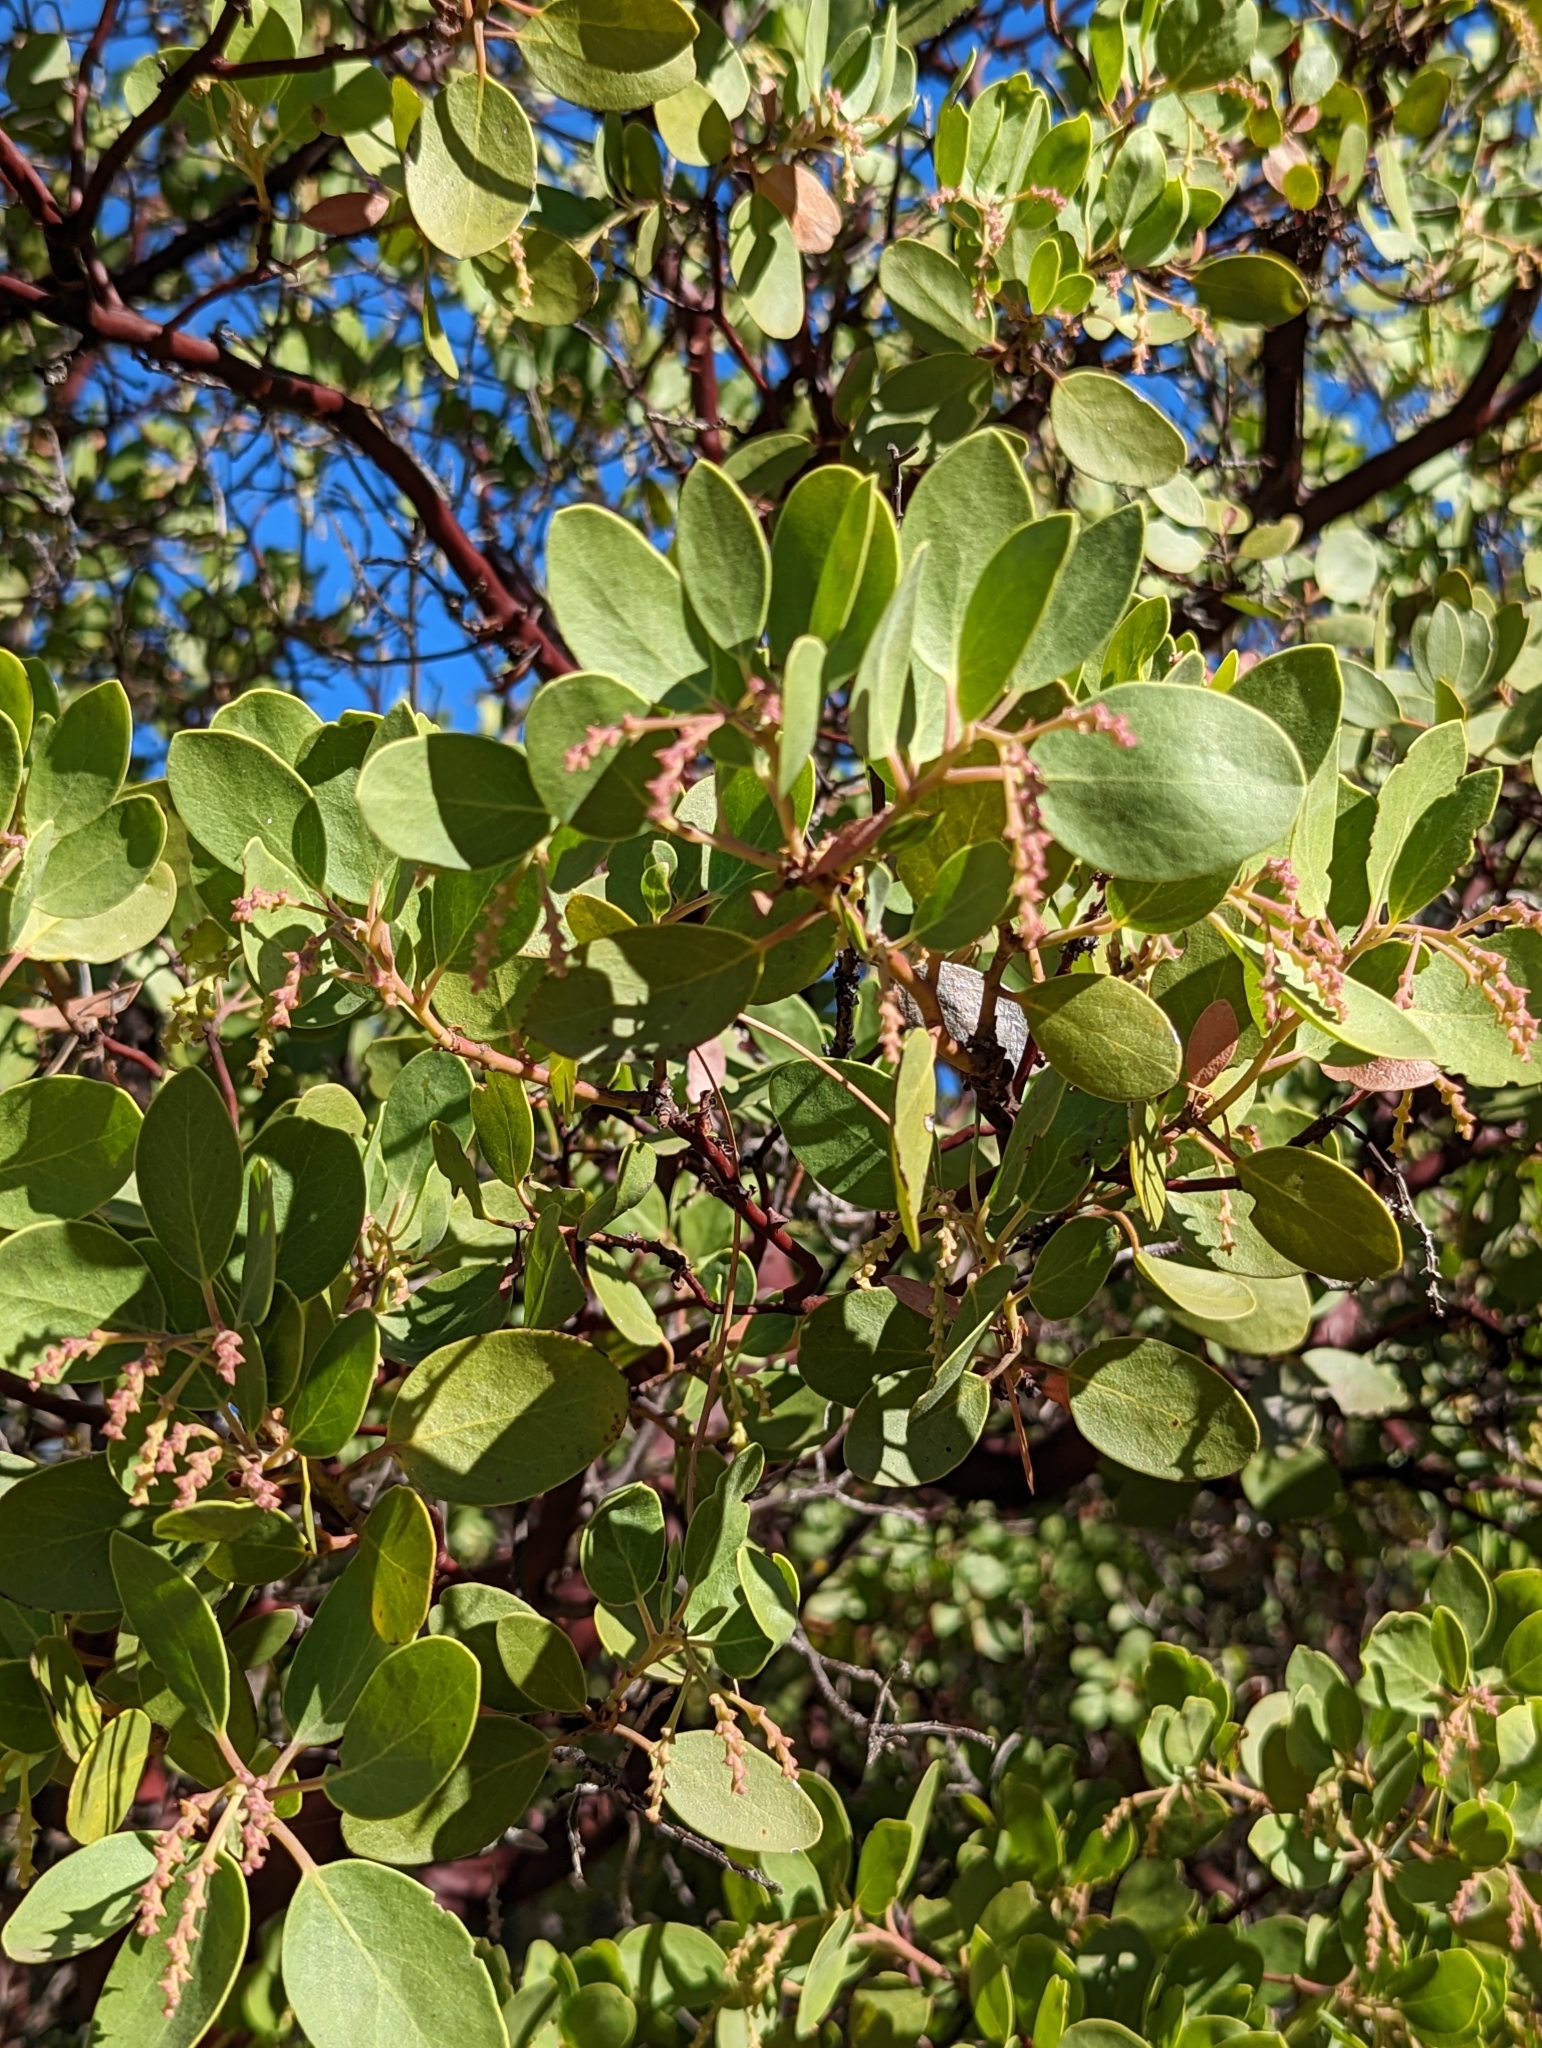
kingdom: Plantae
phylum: Tracheophyta
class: Magnoliopsida
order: Ericales
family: Ericaceae
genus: Arctostaphylos
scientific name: Arctostaphylos manzanita
